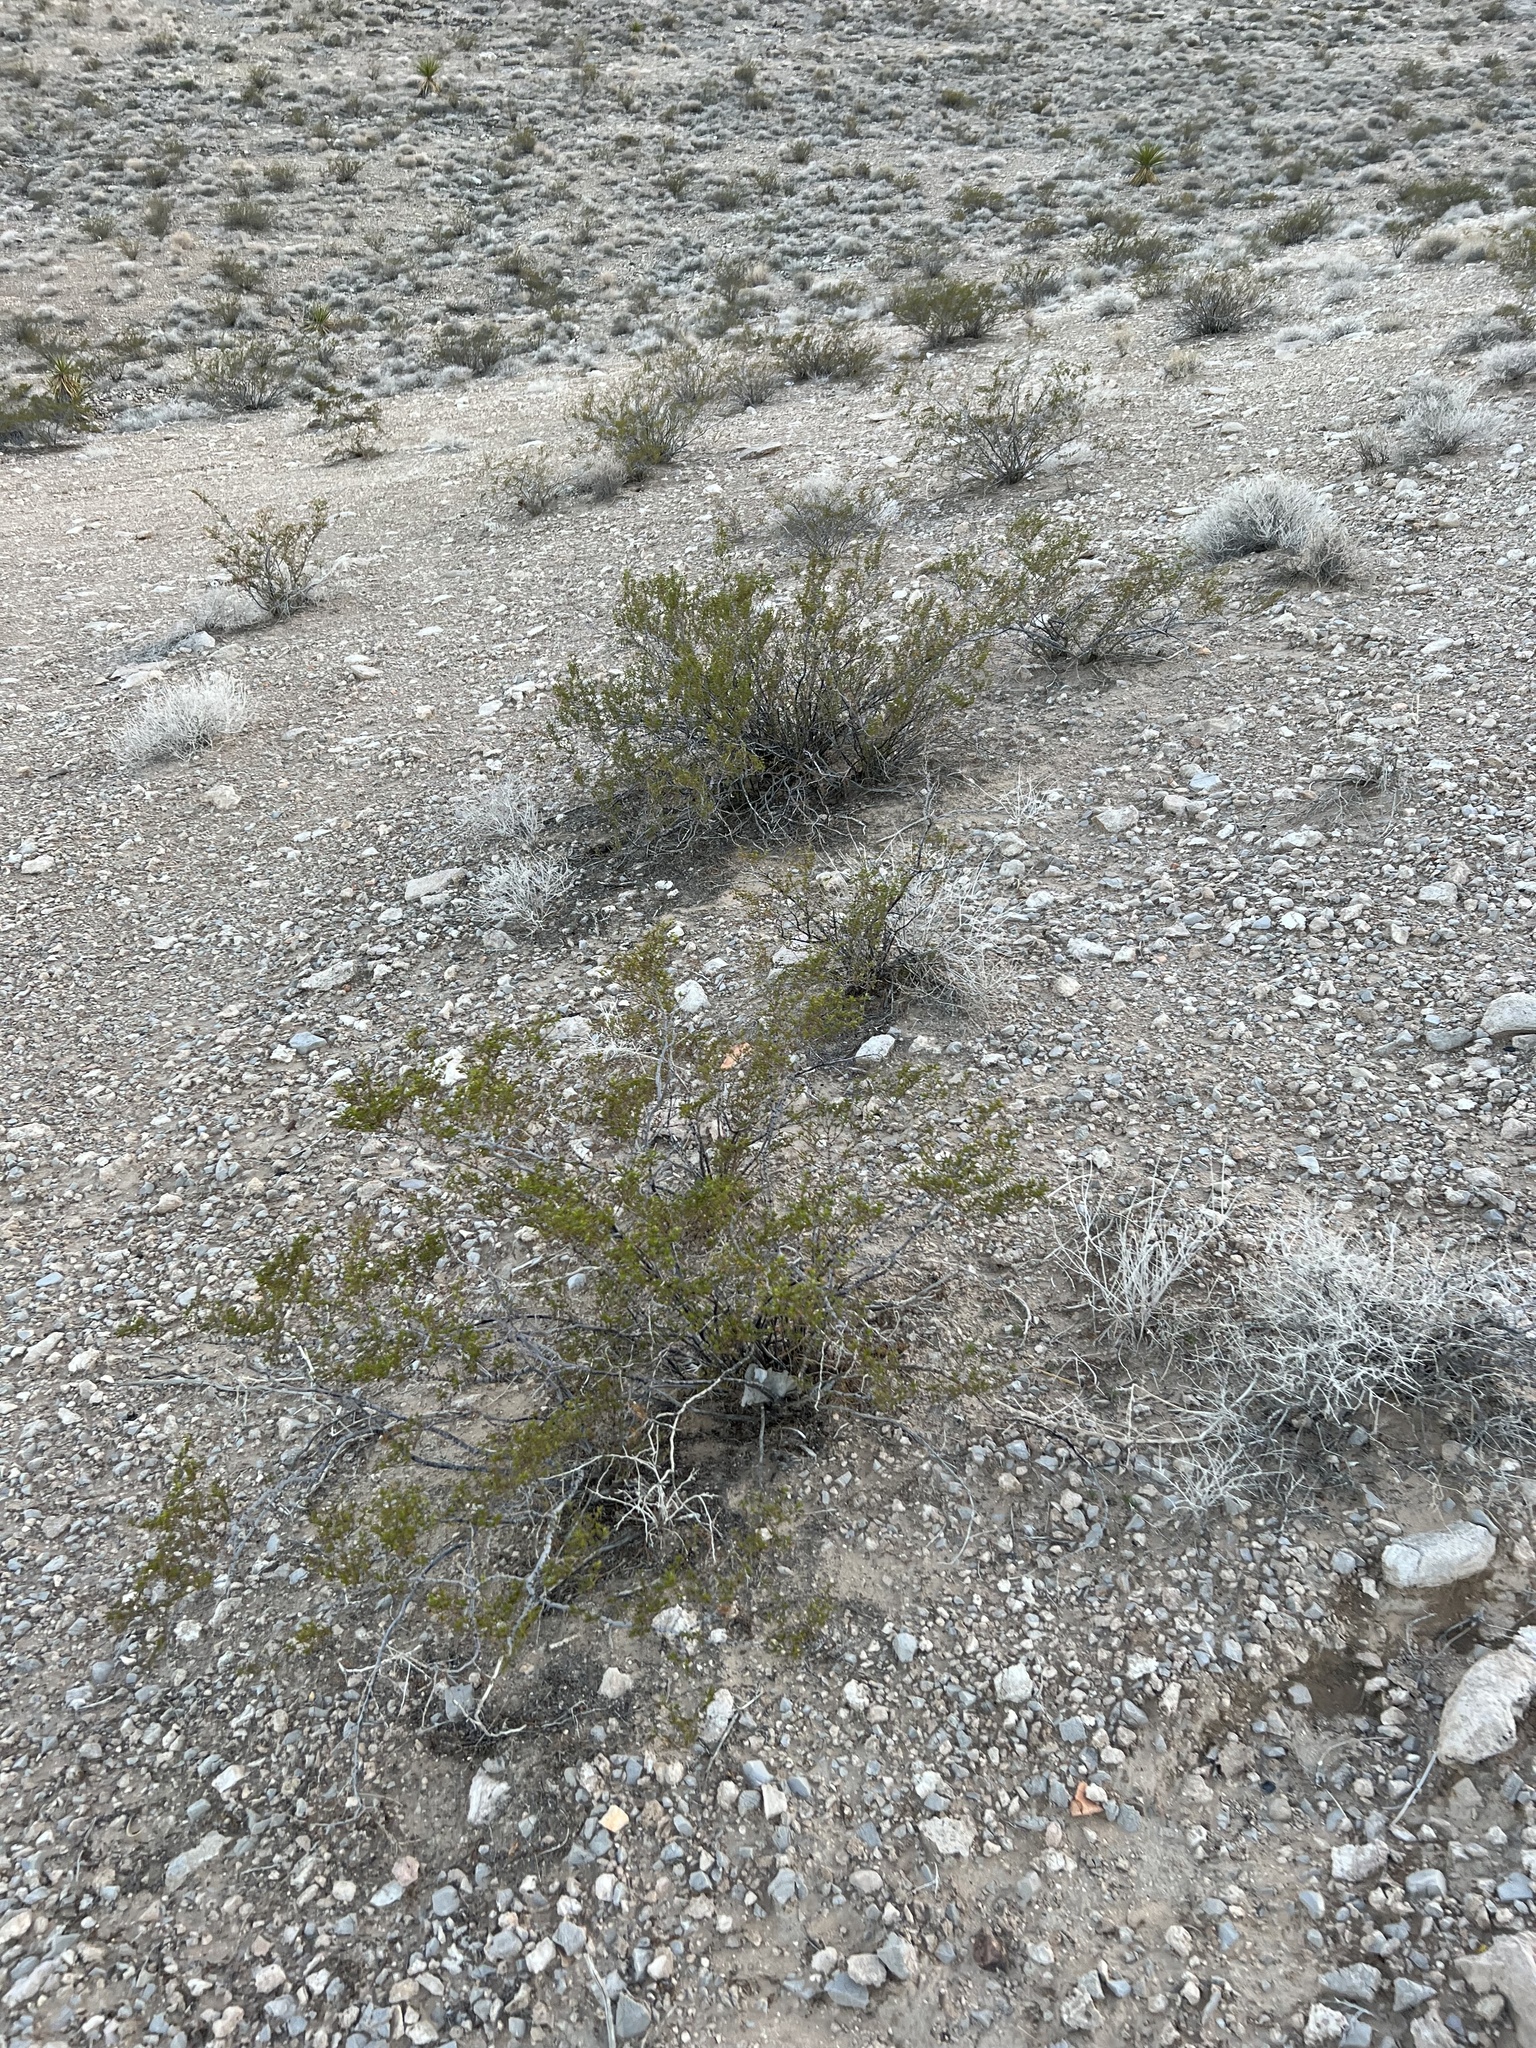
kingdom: Plantae
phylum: Tracheophyta
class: Magnoliopsida
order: Zygophyllales
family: Zygophyllaceae
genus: Larrea
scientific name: Larrea tridentata
